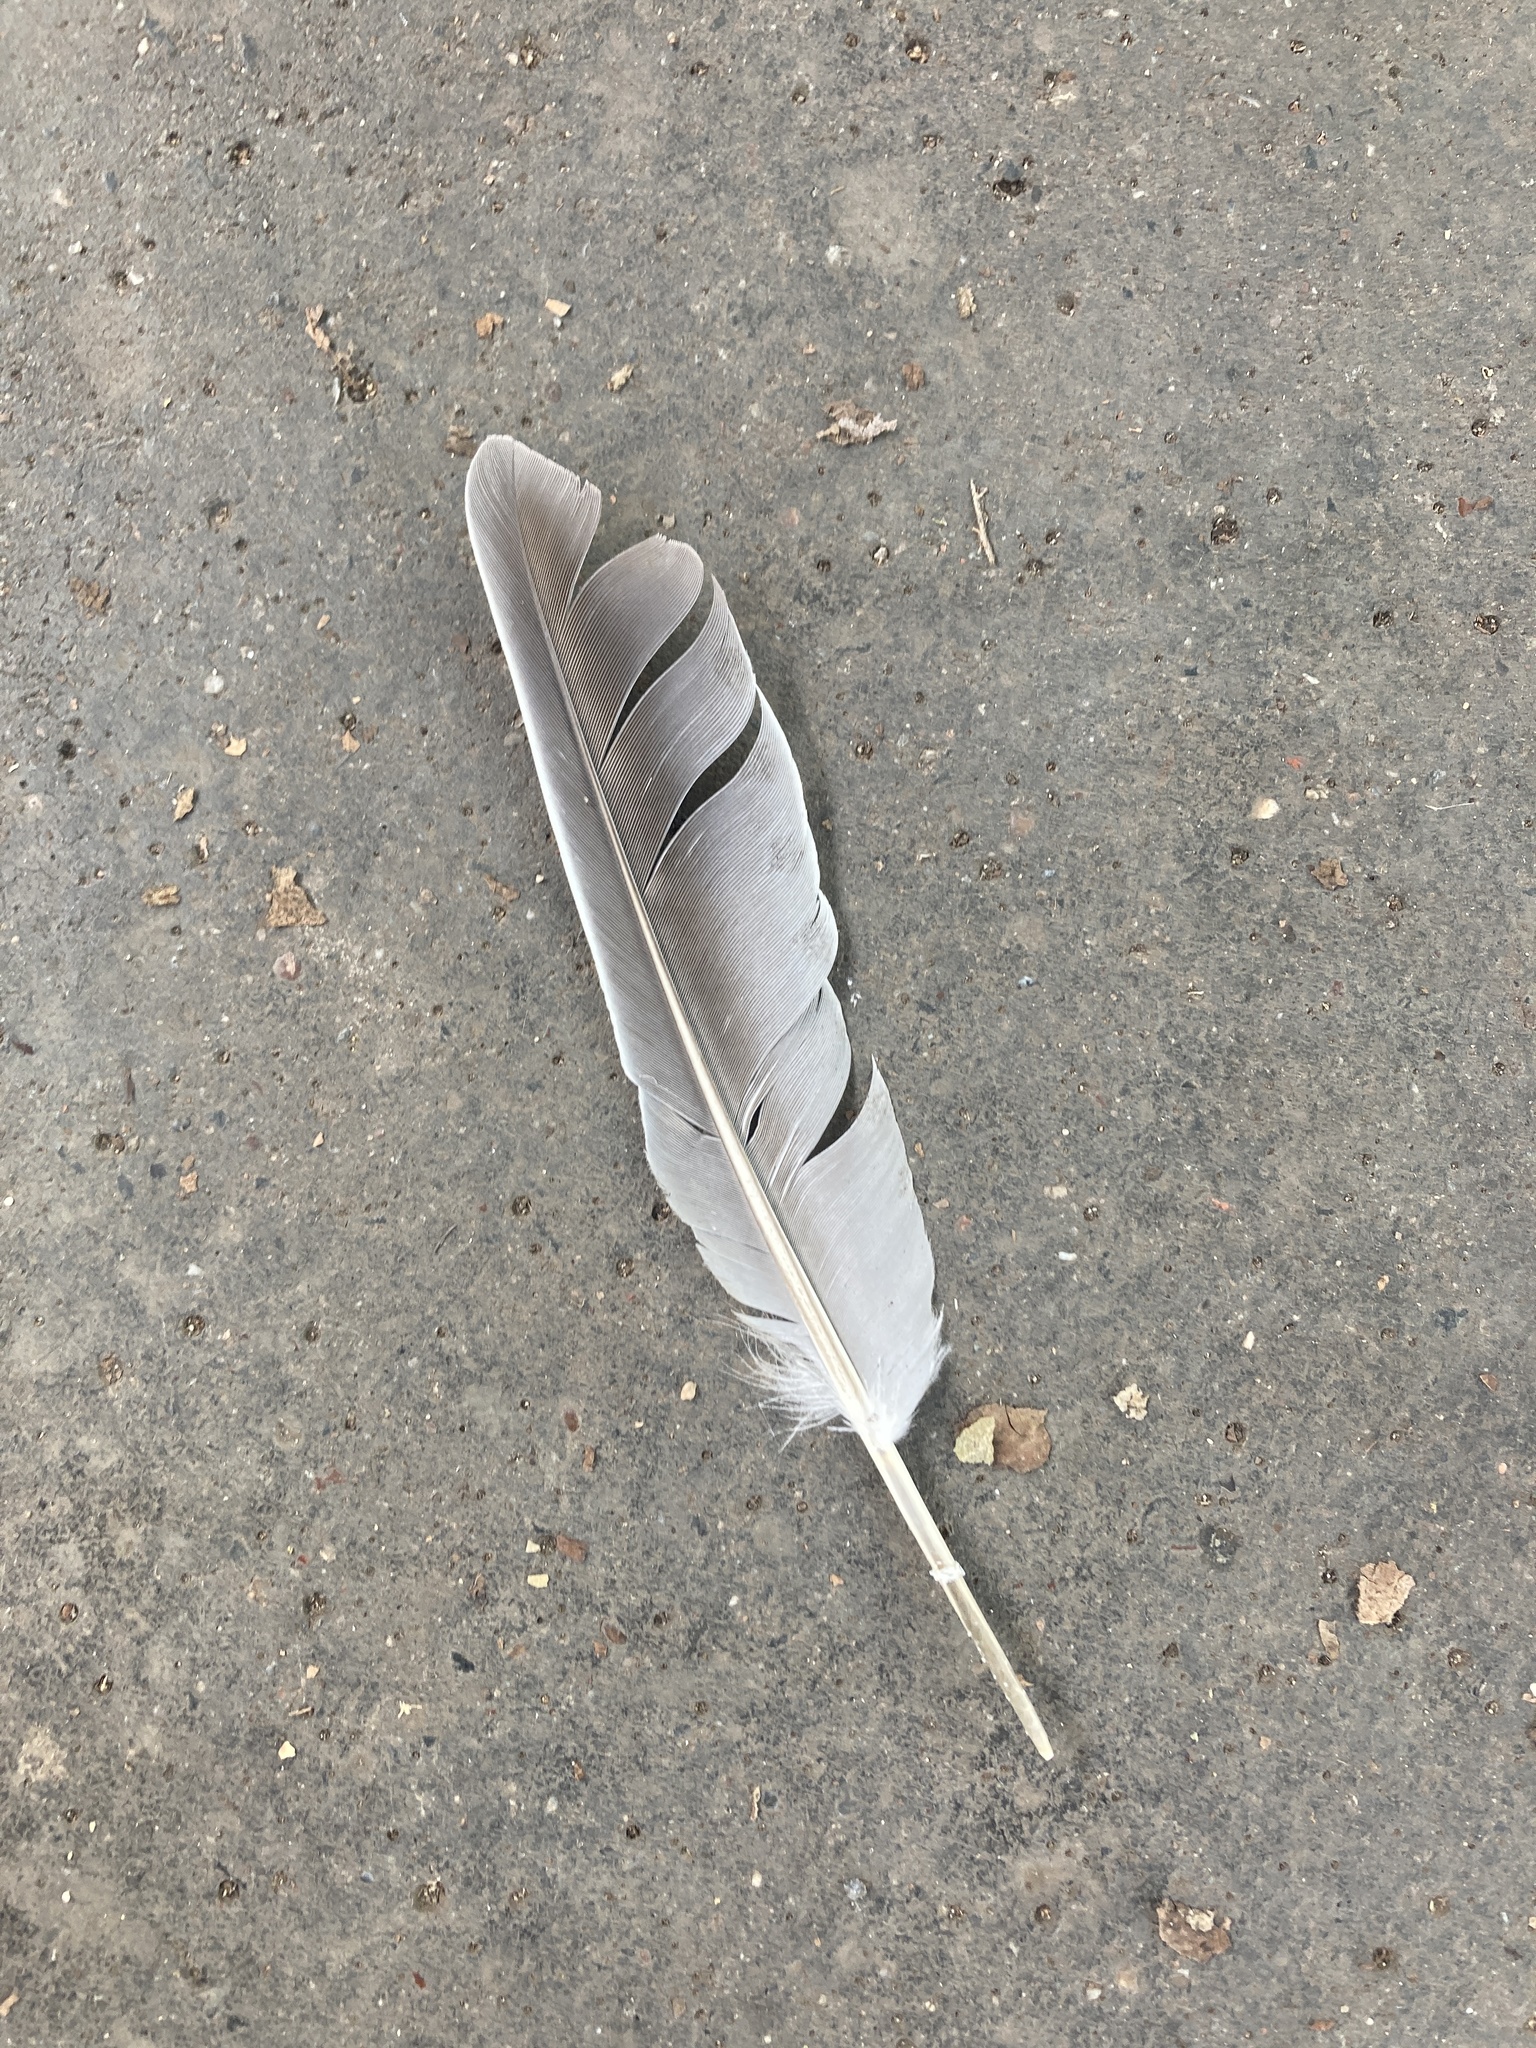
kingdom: Animalia
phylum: Chordata
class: Aves
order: Columbiformes
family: Columbidae
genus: Columba
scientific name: Columba palumbus
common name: Common wood pigeon
